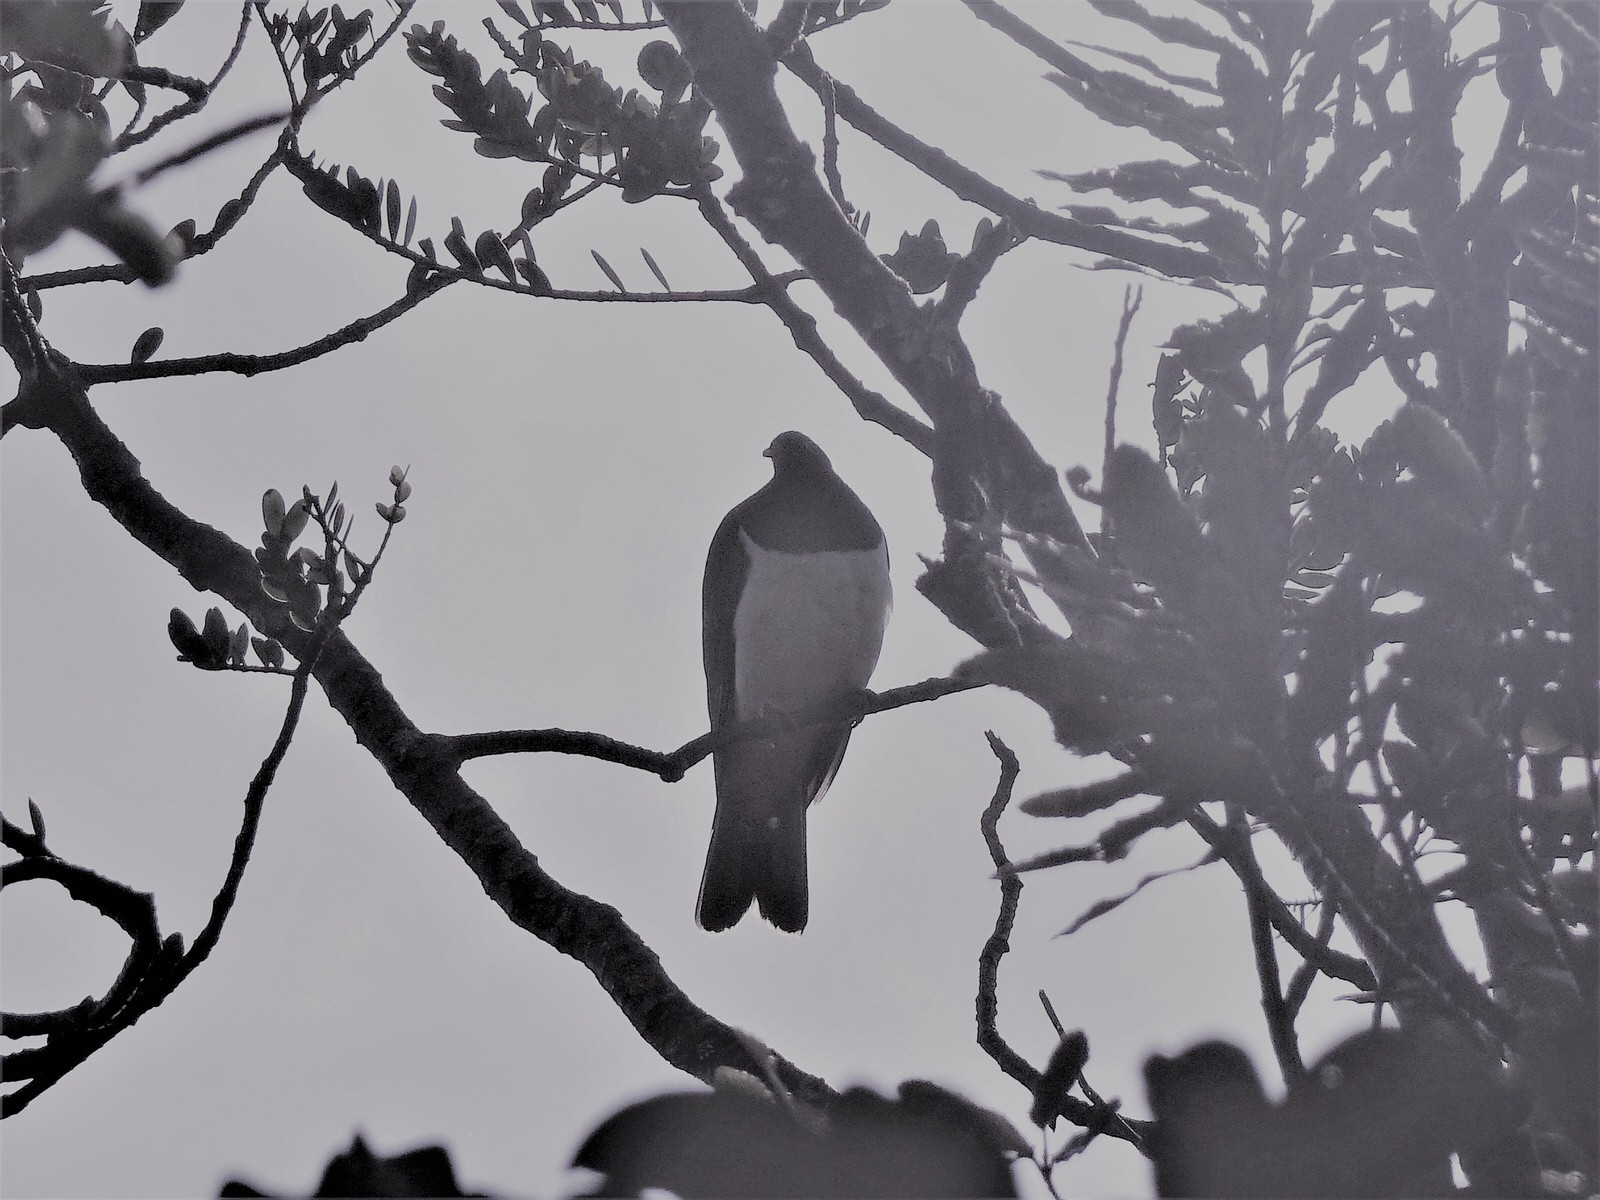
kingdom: Animalia
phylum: Chordata
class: Aves
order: Columbiformes
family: Columbidae
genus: Hemiphaga
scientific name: Hemiphaga novaeseelandiae
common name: New zealand pigeon
